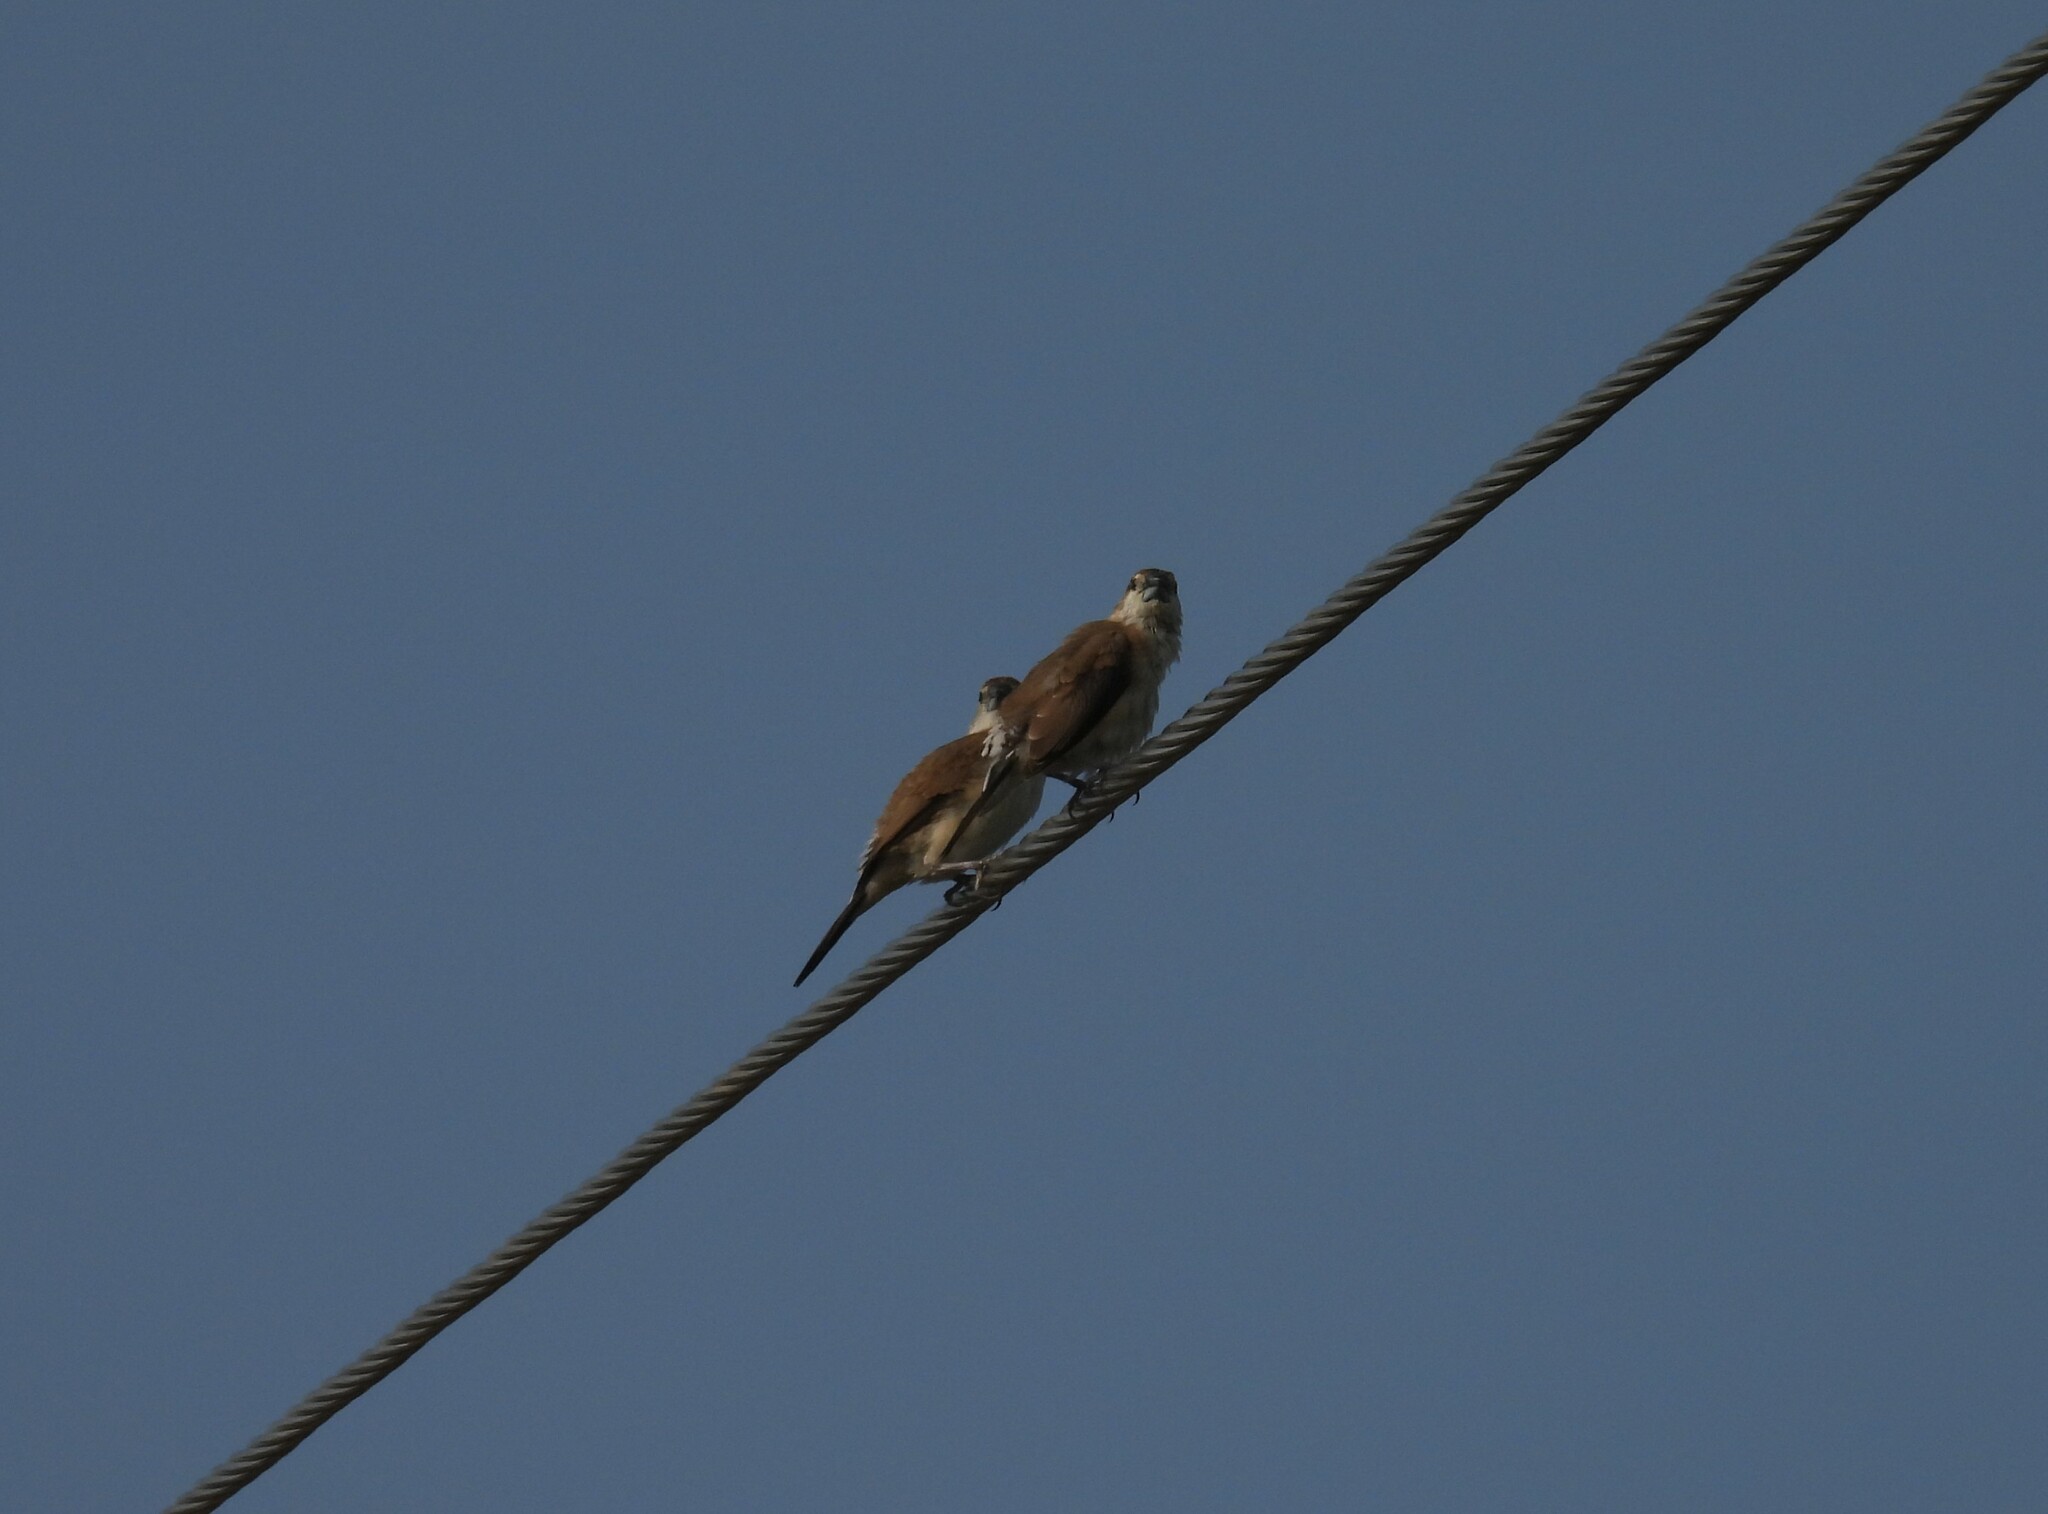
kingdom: Animalia
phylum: Chordata
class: Aves
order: Passeriformes
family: Estrildidae
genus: Euodice
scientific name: Euodice malabarica
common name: Indian silverbill
